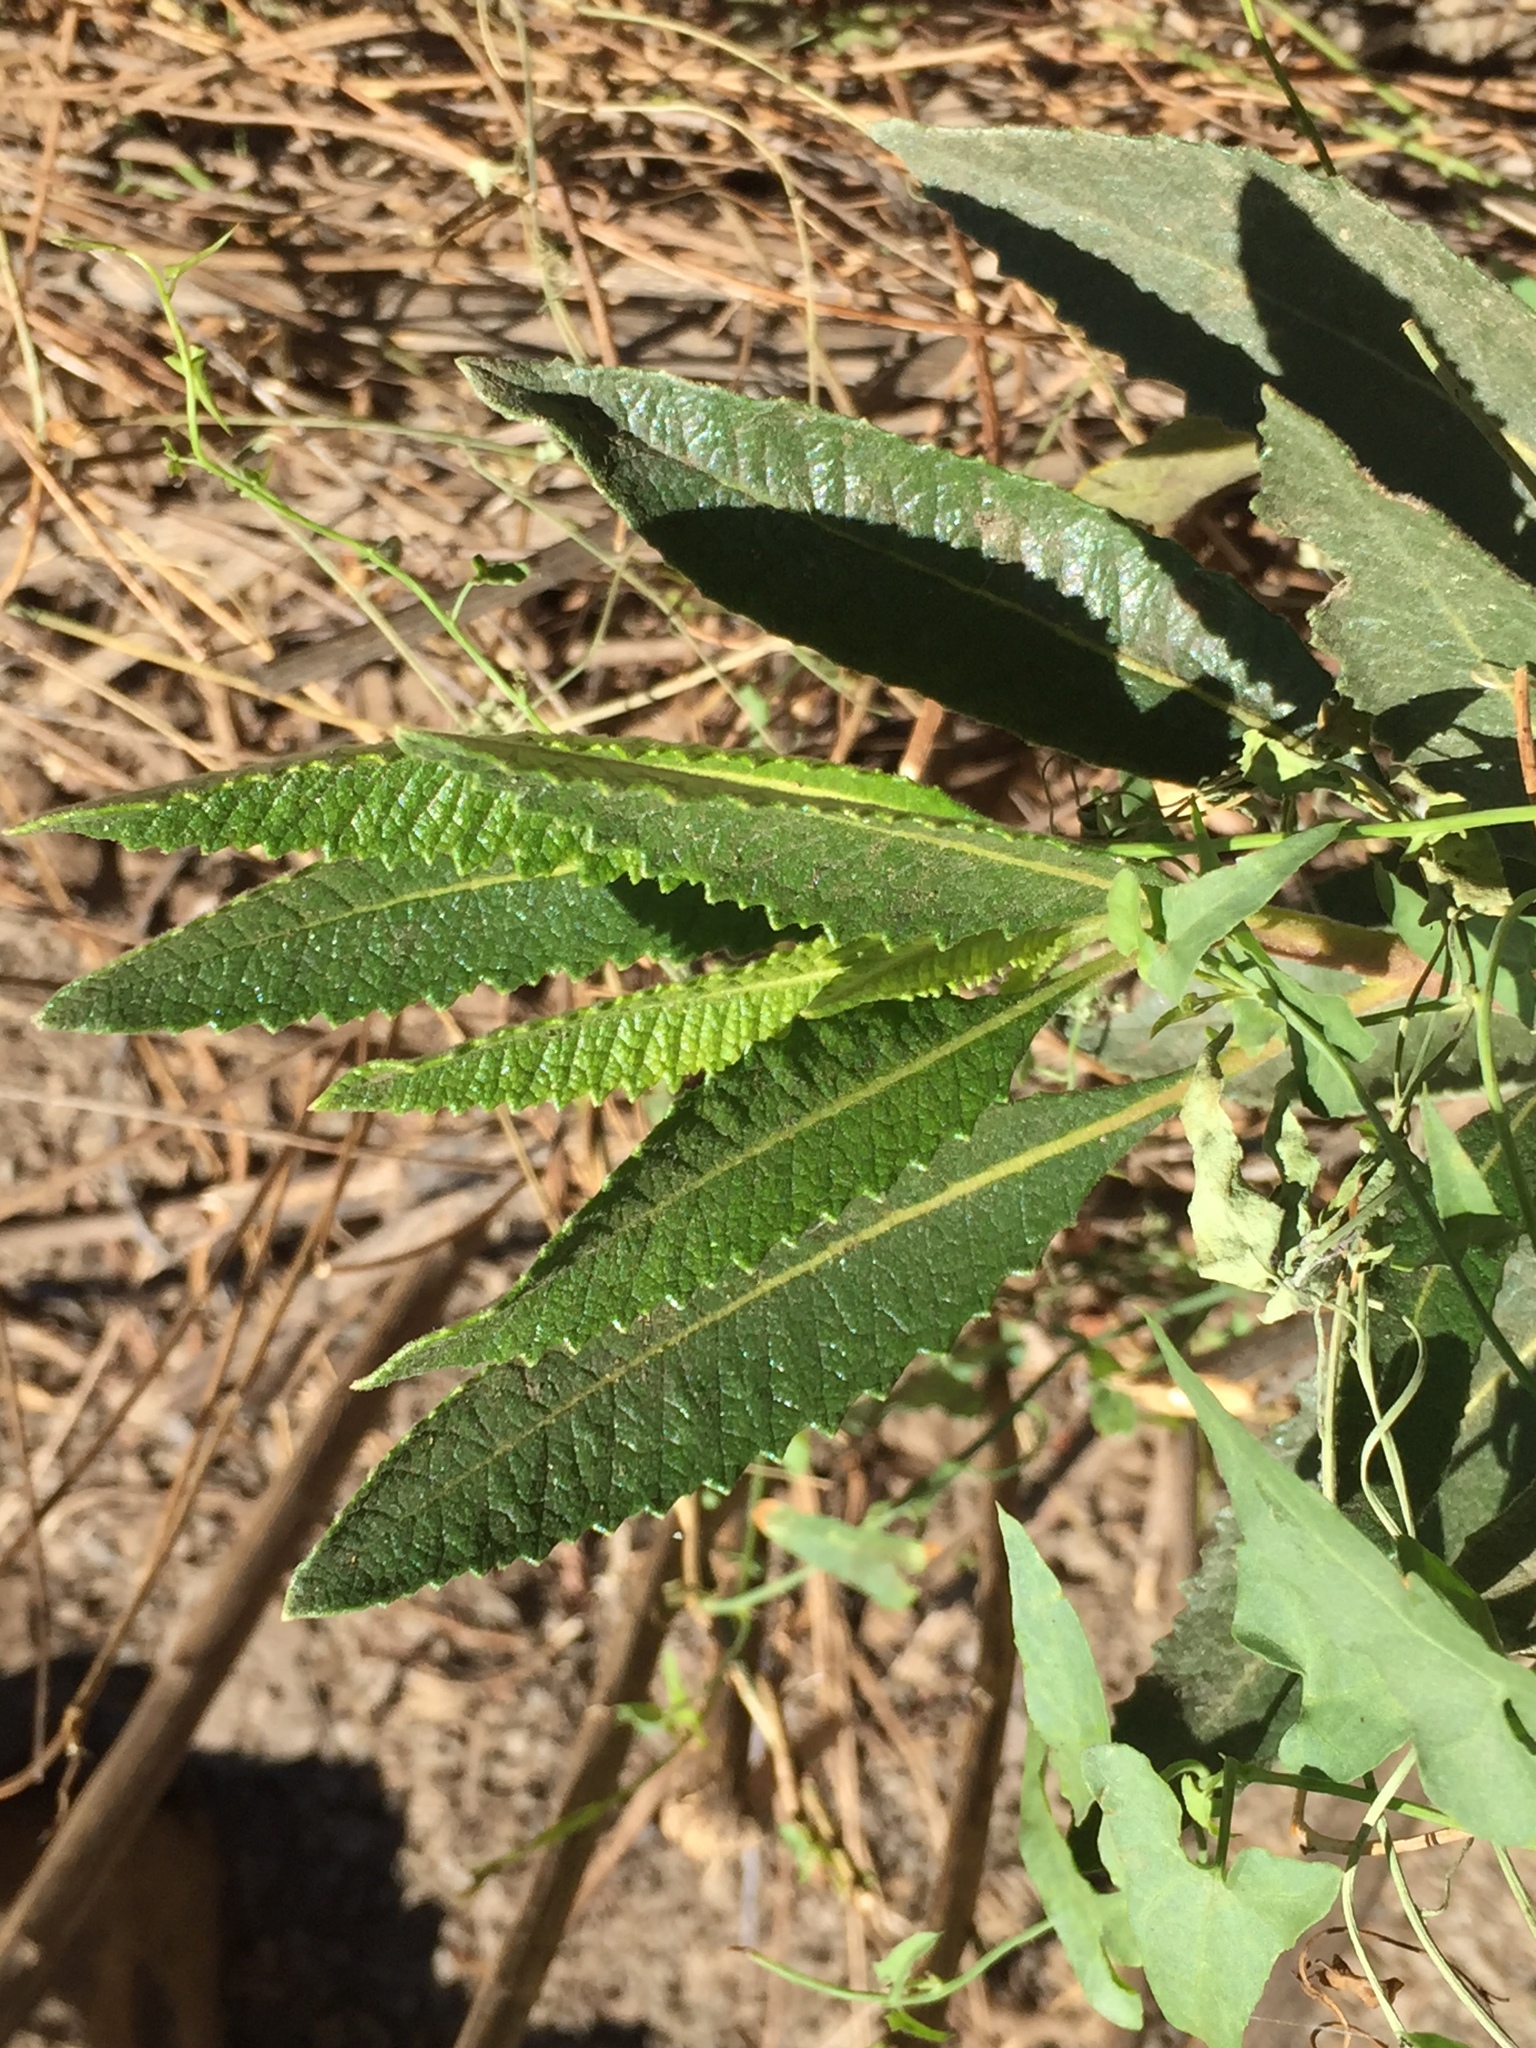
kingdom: Plantae
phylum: Tracheophyta
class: Magnoliopsida
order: Boraginales
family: Namaceae
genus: Eriodictyon
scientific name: Eriodictyon crassifolium
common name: Thick-leaf yerba-santa
